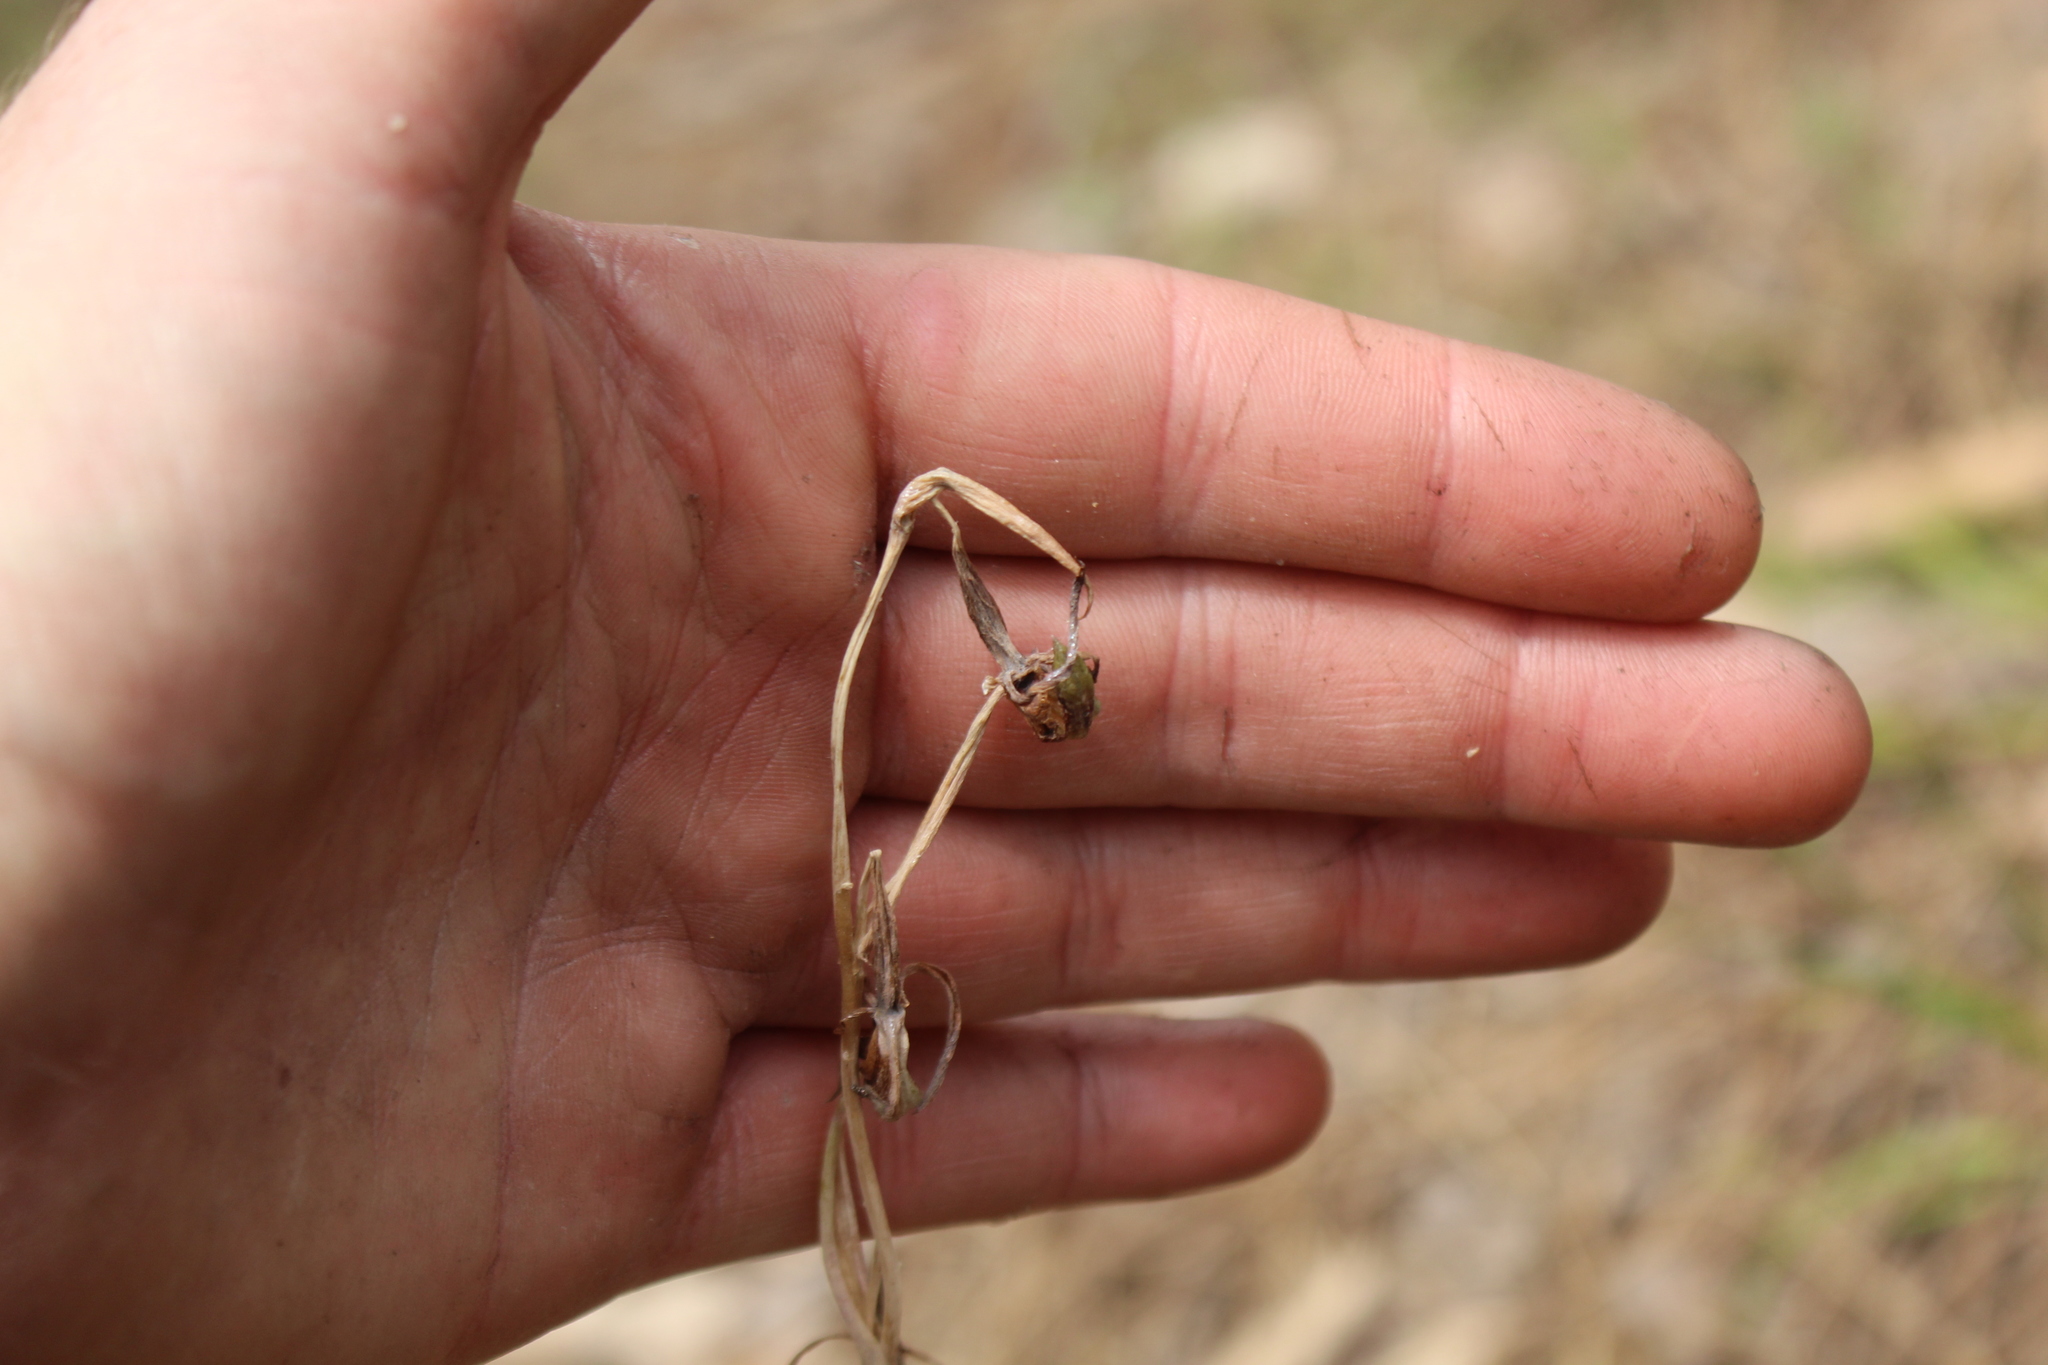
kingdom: Plantae
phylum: Tracheophyta
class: Liliopsida
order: Asparagales
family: Orchidaceae
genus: Lyperanthus
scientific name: Lyperanthus serratus
